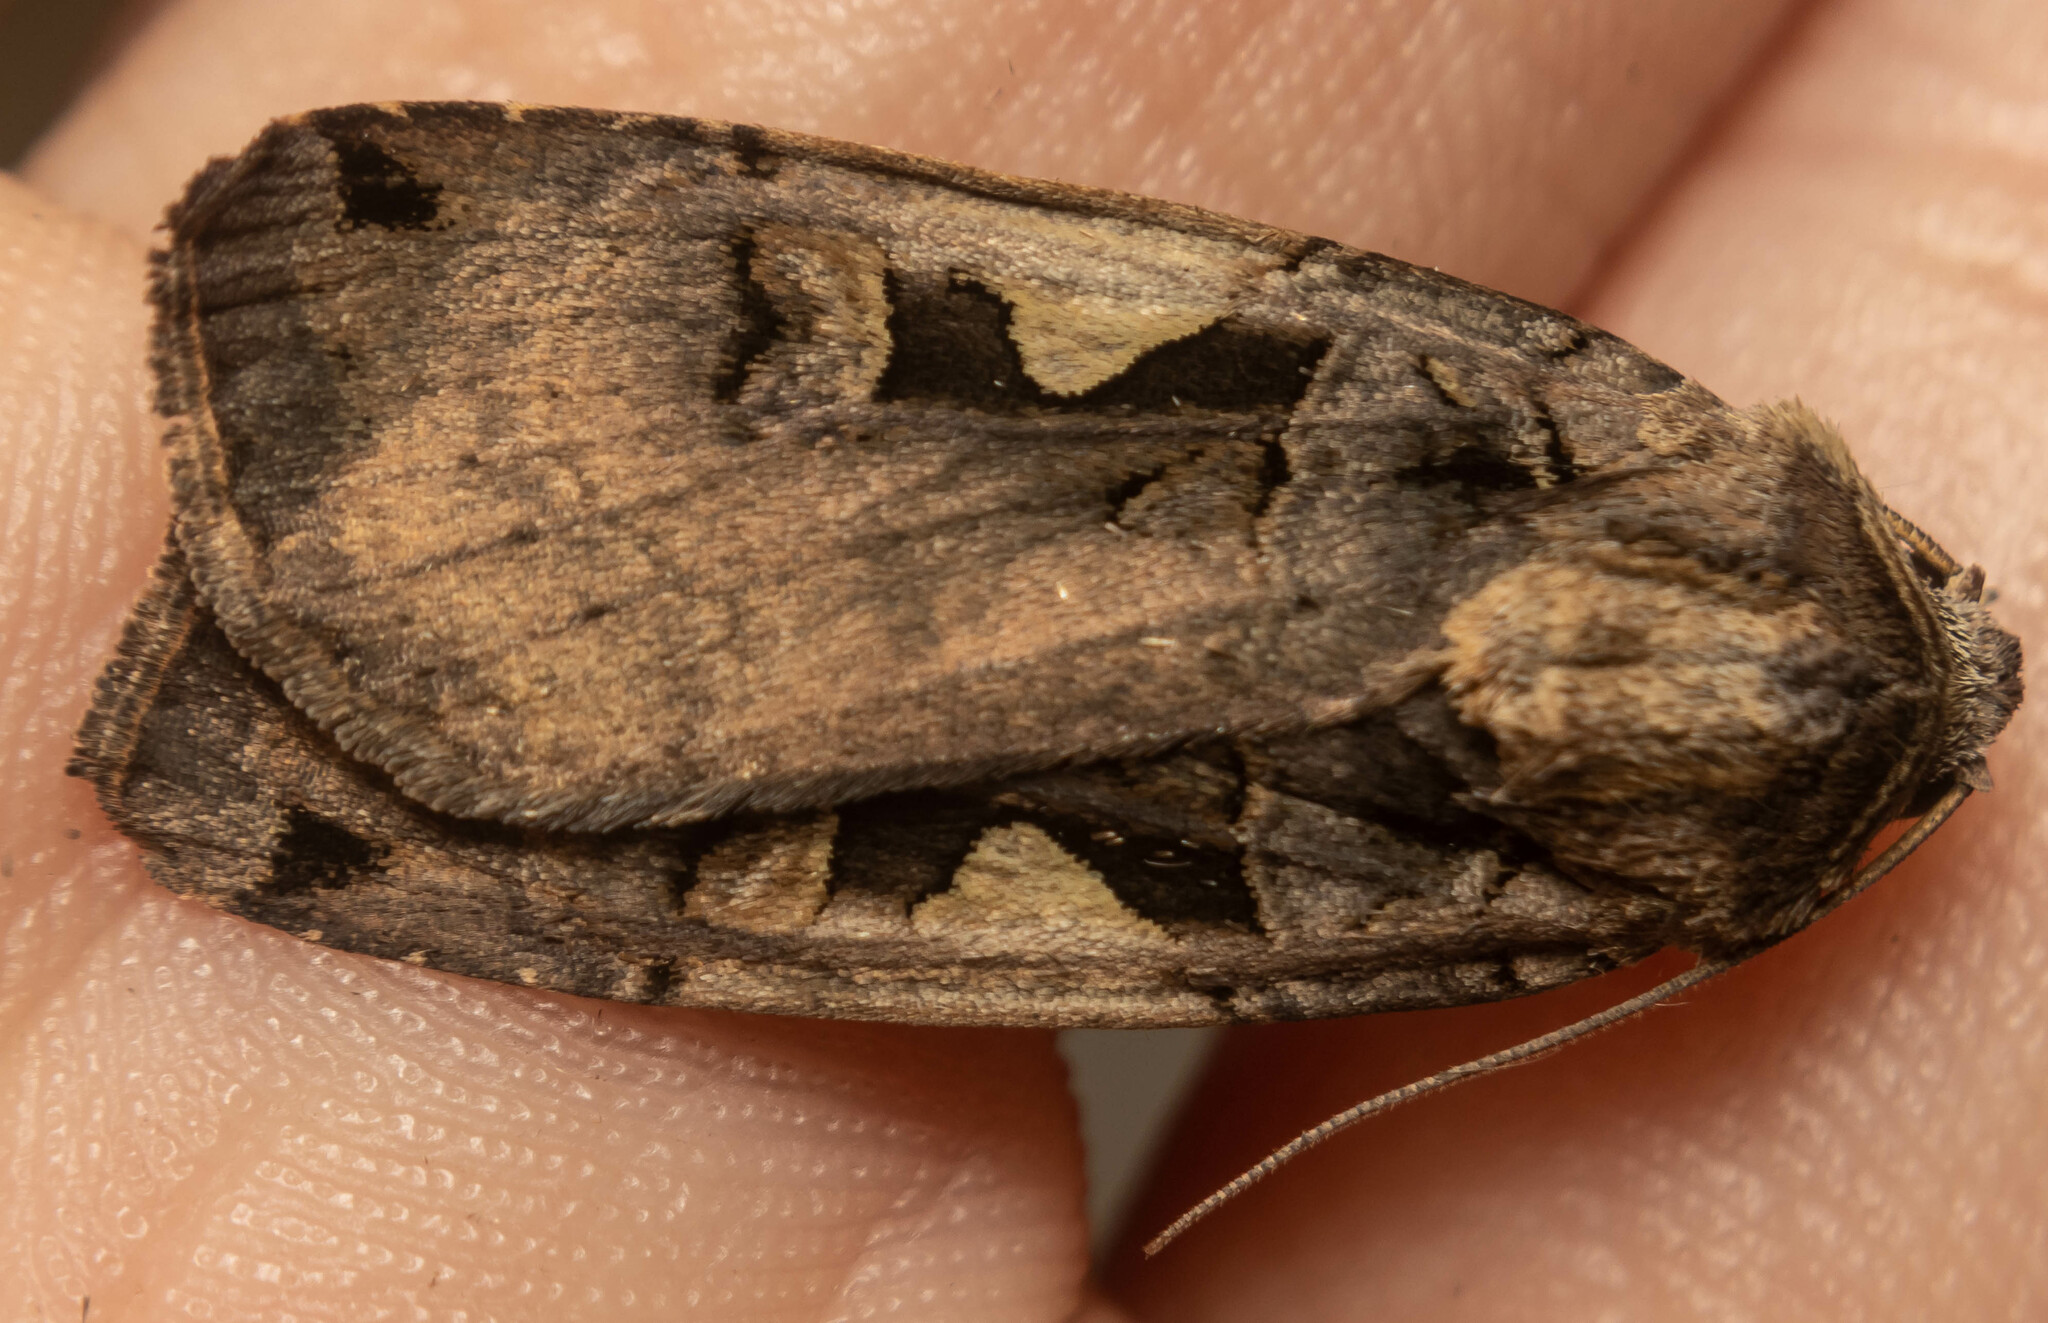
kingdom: Animalia
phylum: Arthropoda
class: Insecta
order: Lepidoptera
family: Noctuidae
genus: Xestia
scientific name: Xestia c-nigrum
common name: Setaceous hebrew character
